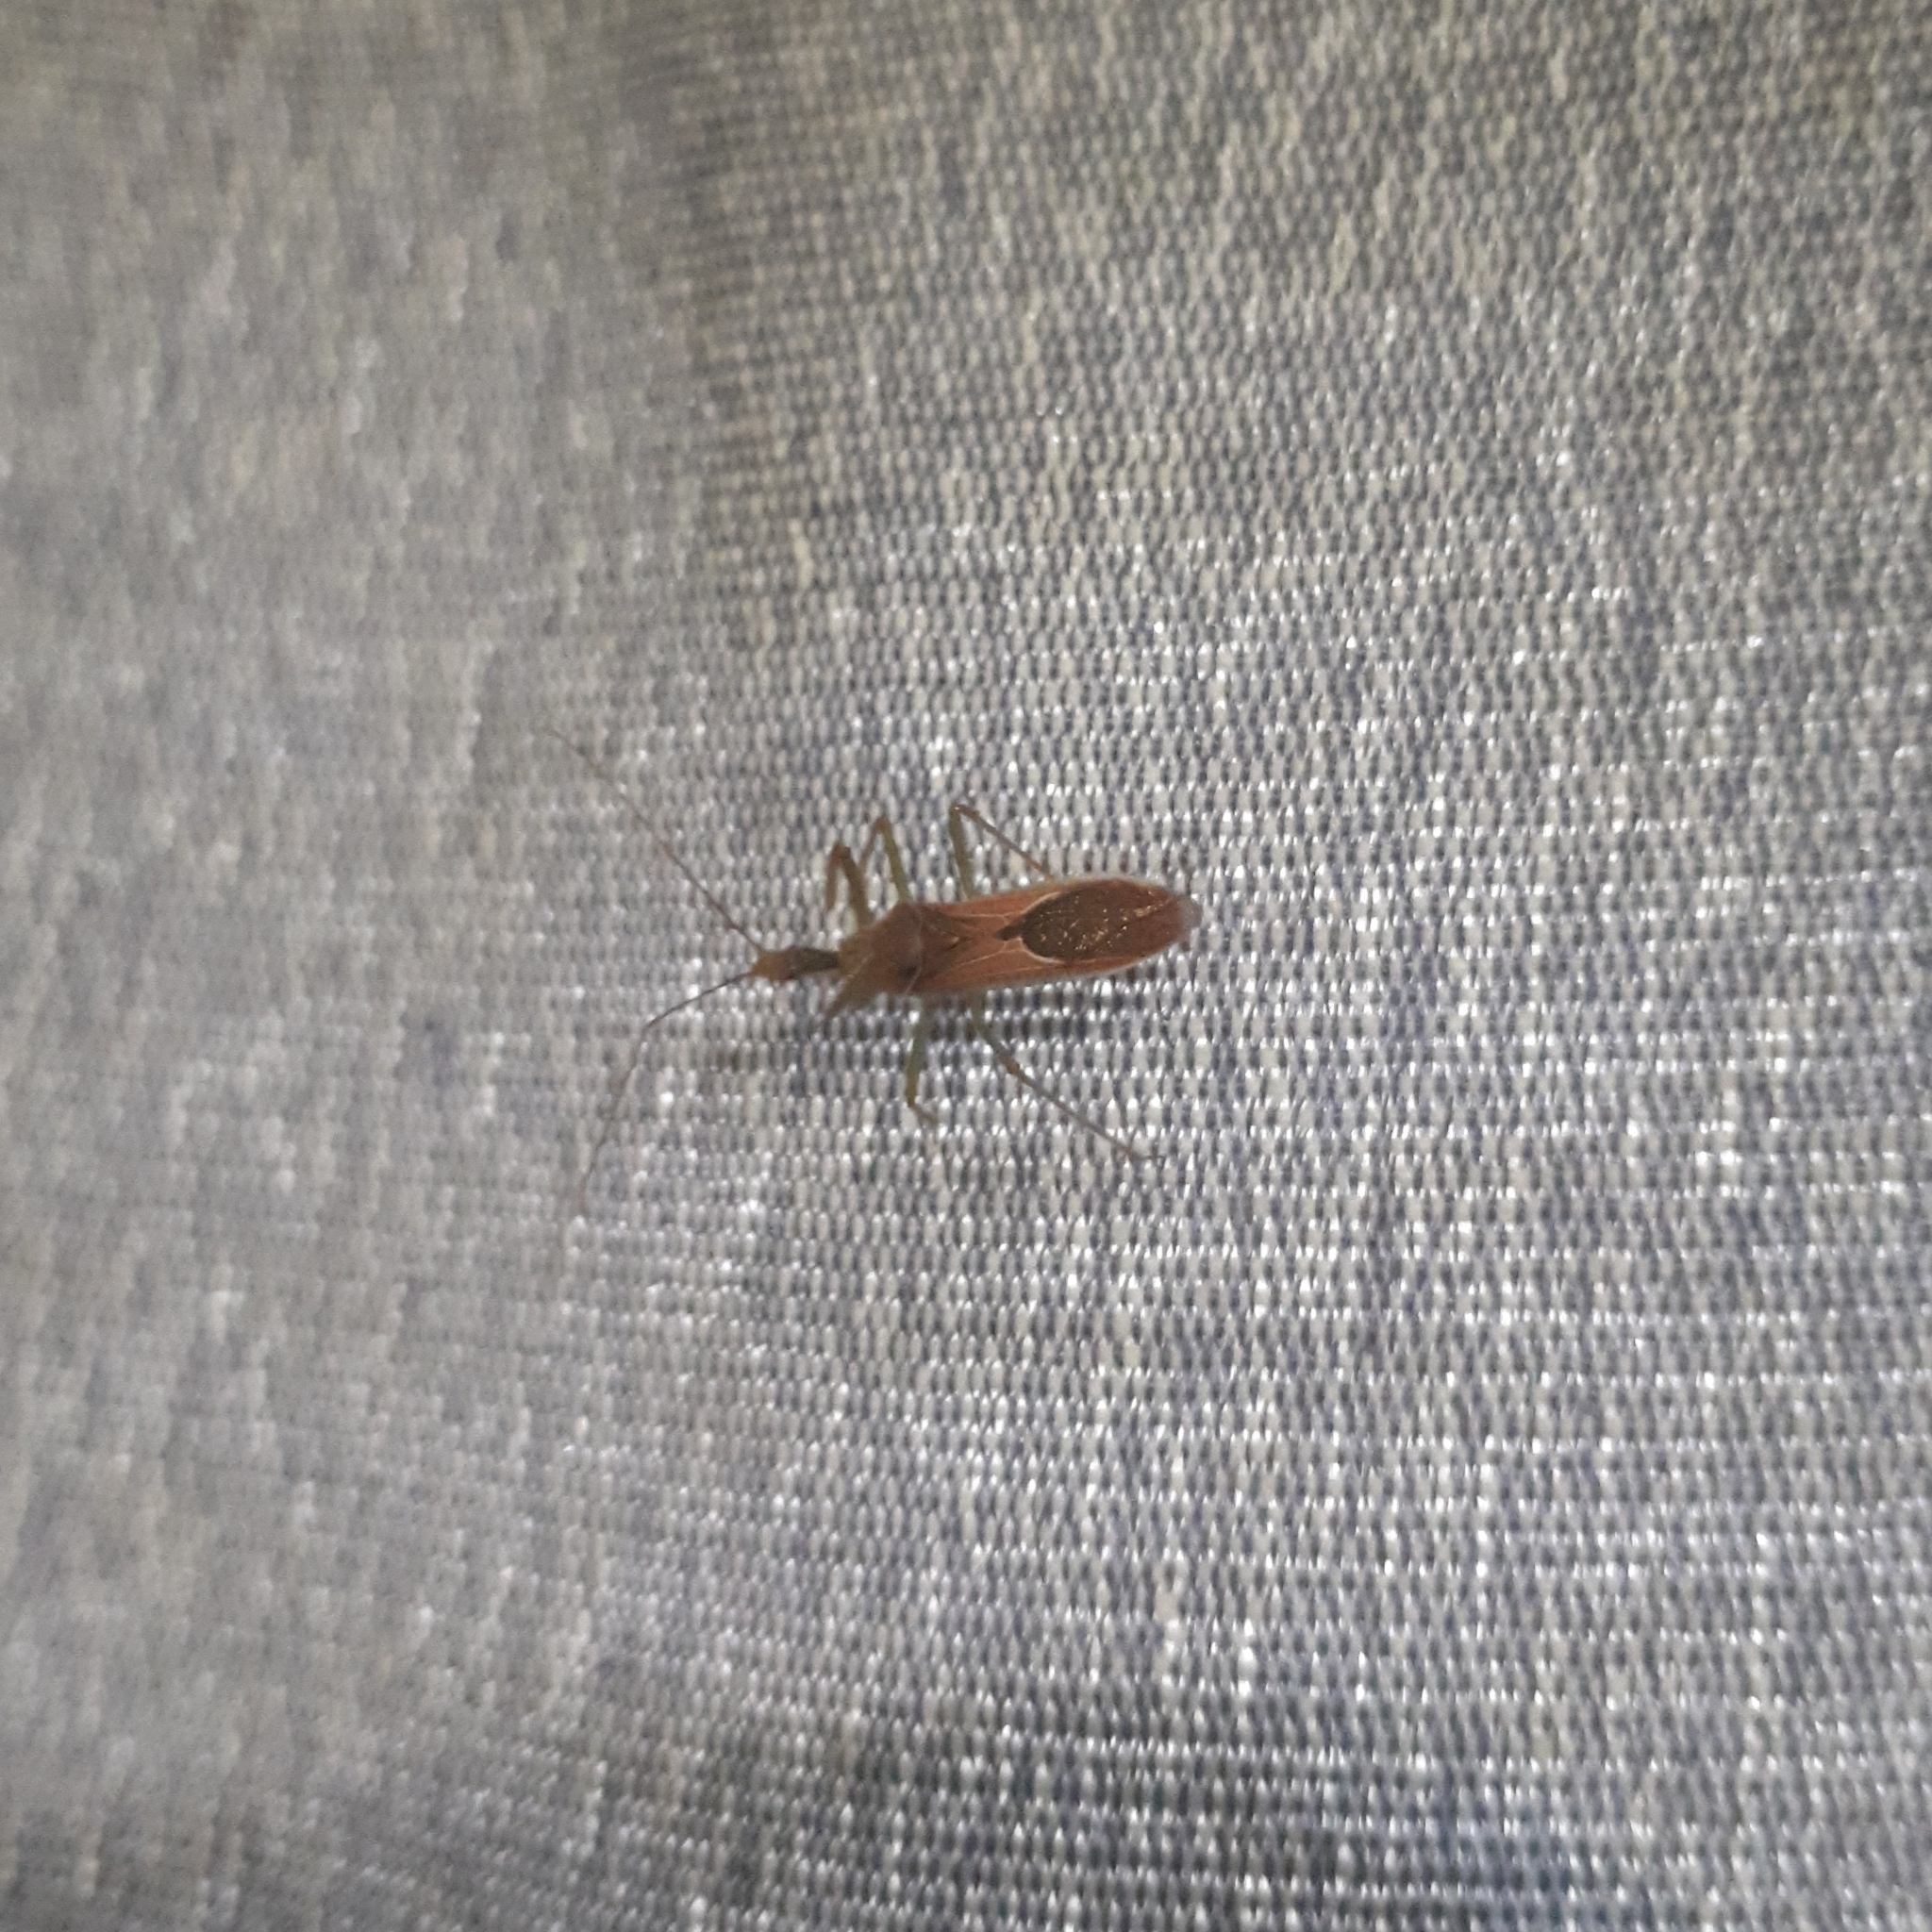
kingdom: Animalia
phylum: Arthropoda
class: Insecta
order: Hemiptera
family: Reduviidae
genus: Zelus
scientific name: Zelus renardii
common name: Assassin bug
